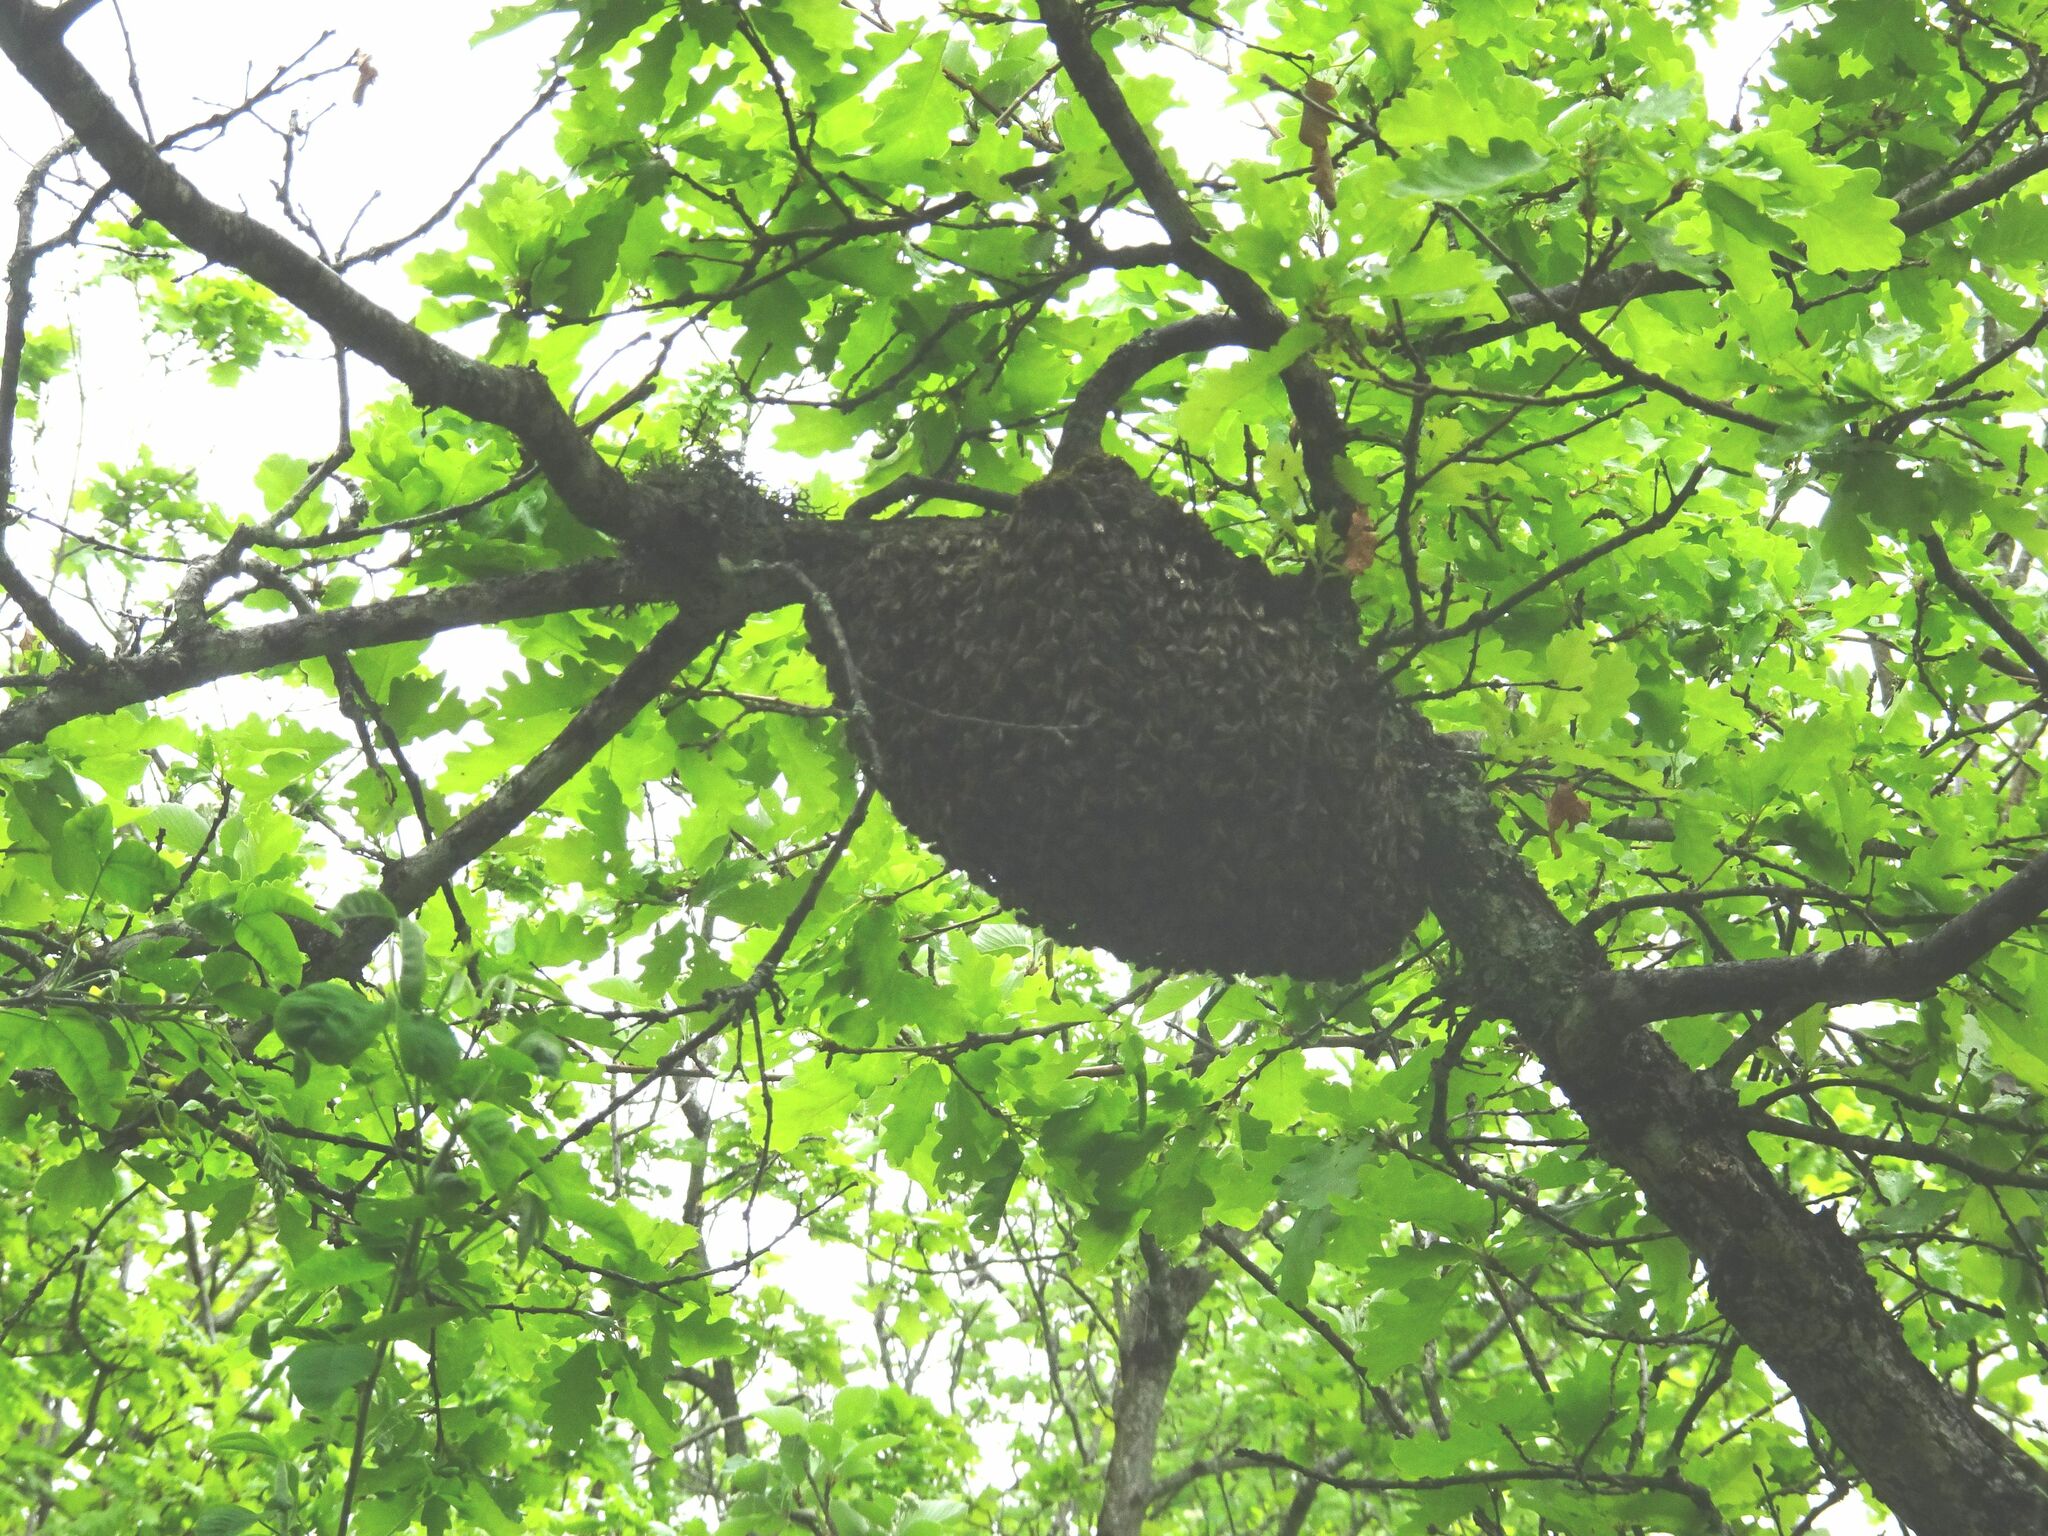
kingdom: Animalia
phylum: Arthropoda
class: Insecta
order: Hymenoptera
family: Apidae
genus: Apis
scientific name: Apis mellifera
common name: Honey bee
